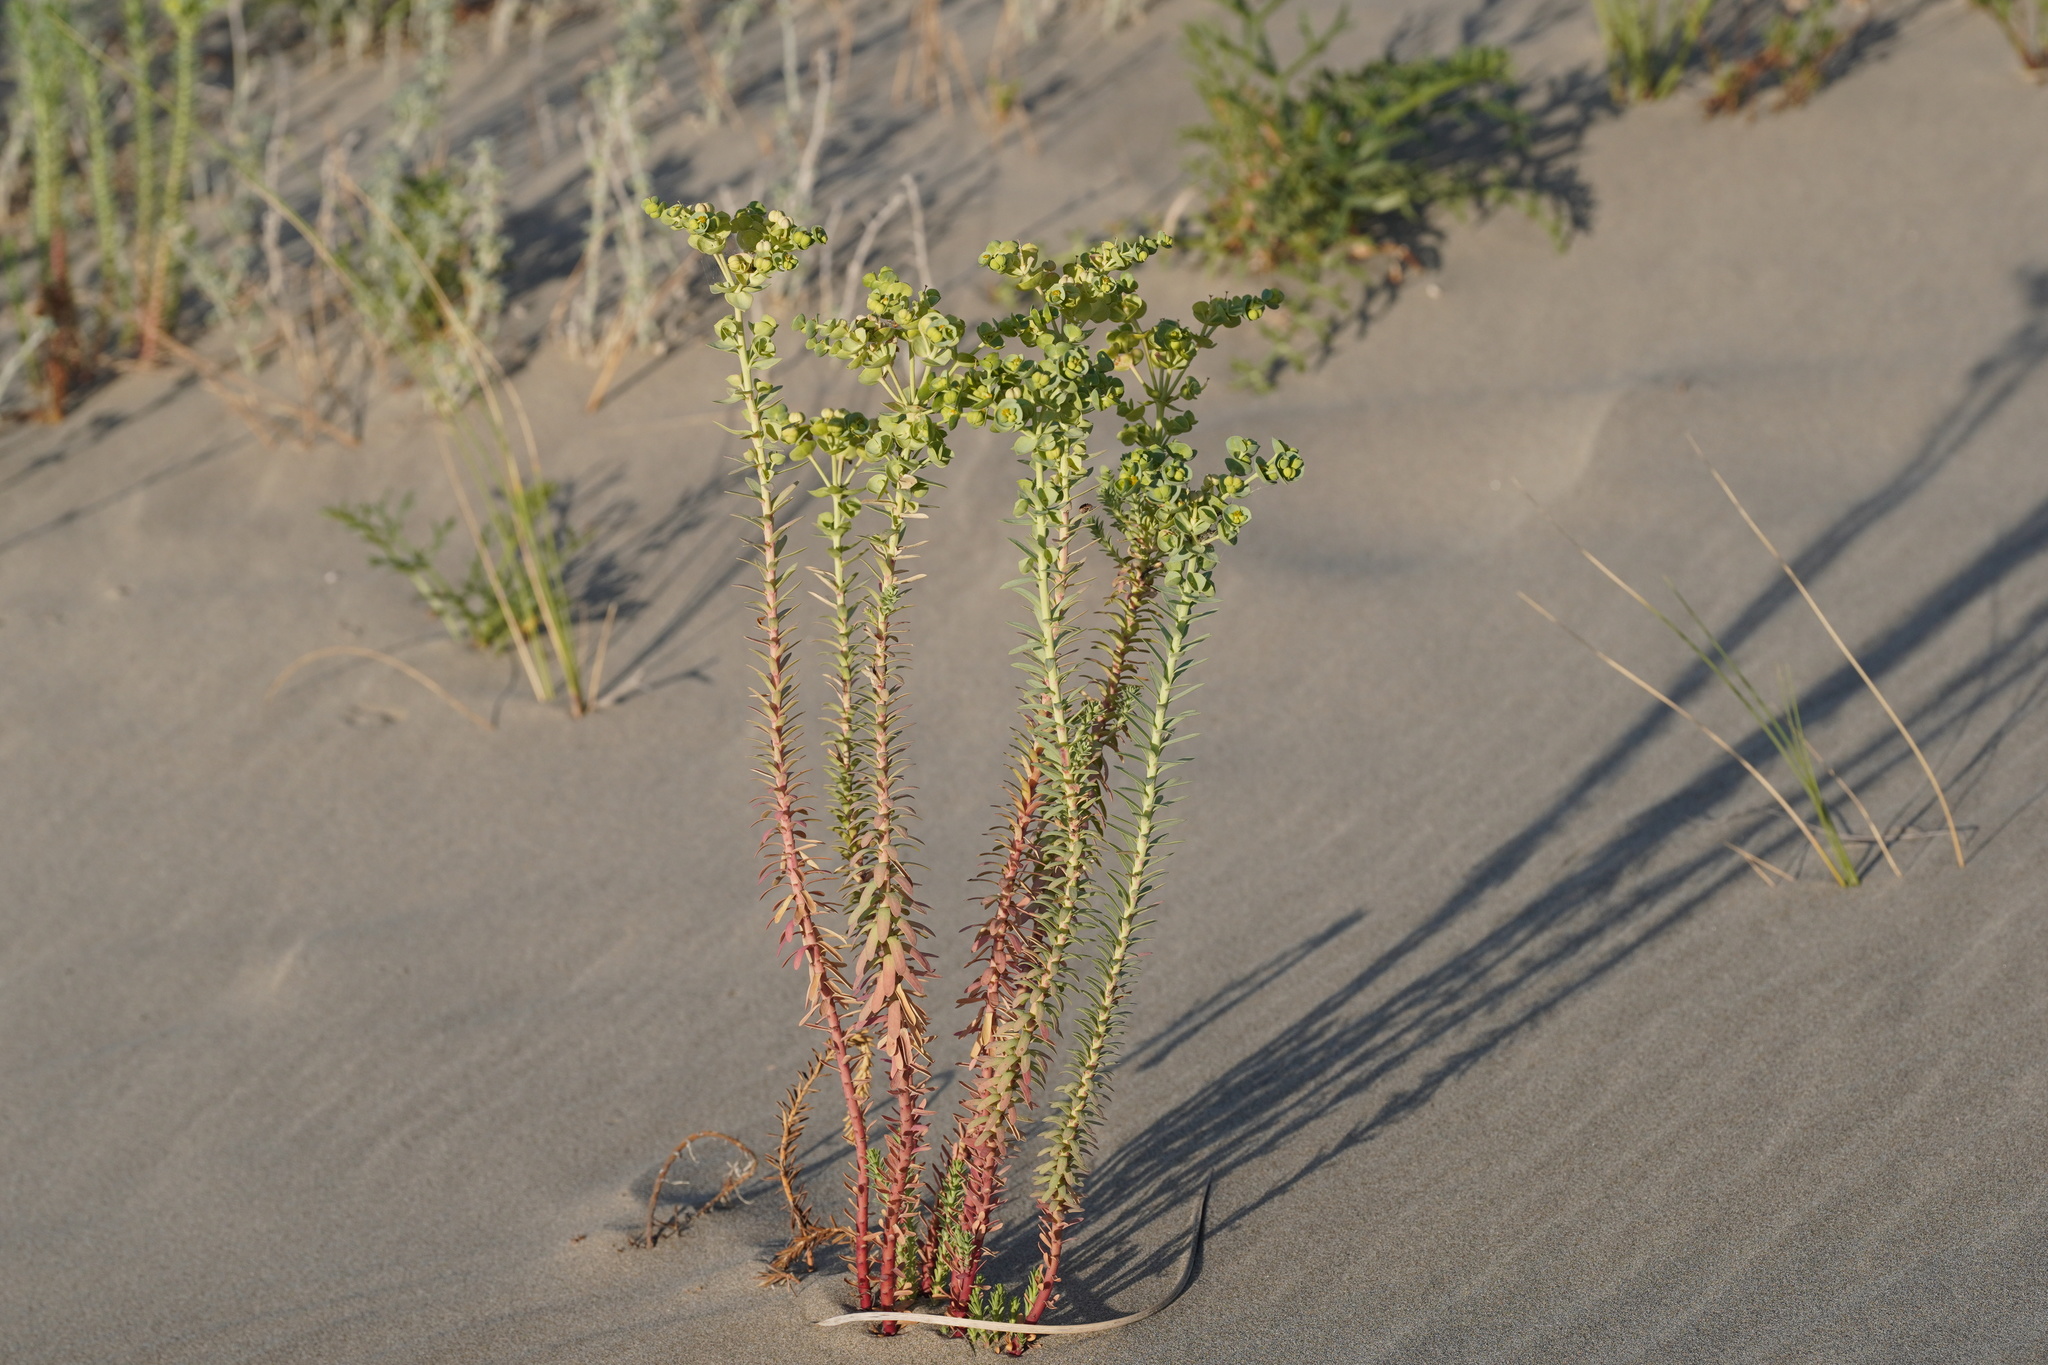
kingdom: Plantae
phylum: Tracheophyta
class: Magnoliopsida
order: Malpighiales
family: Euphorbiaceae
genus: Euphorbia
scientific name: Euphorbia paralias
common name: Sea spurge
